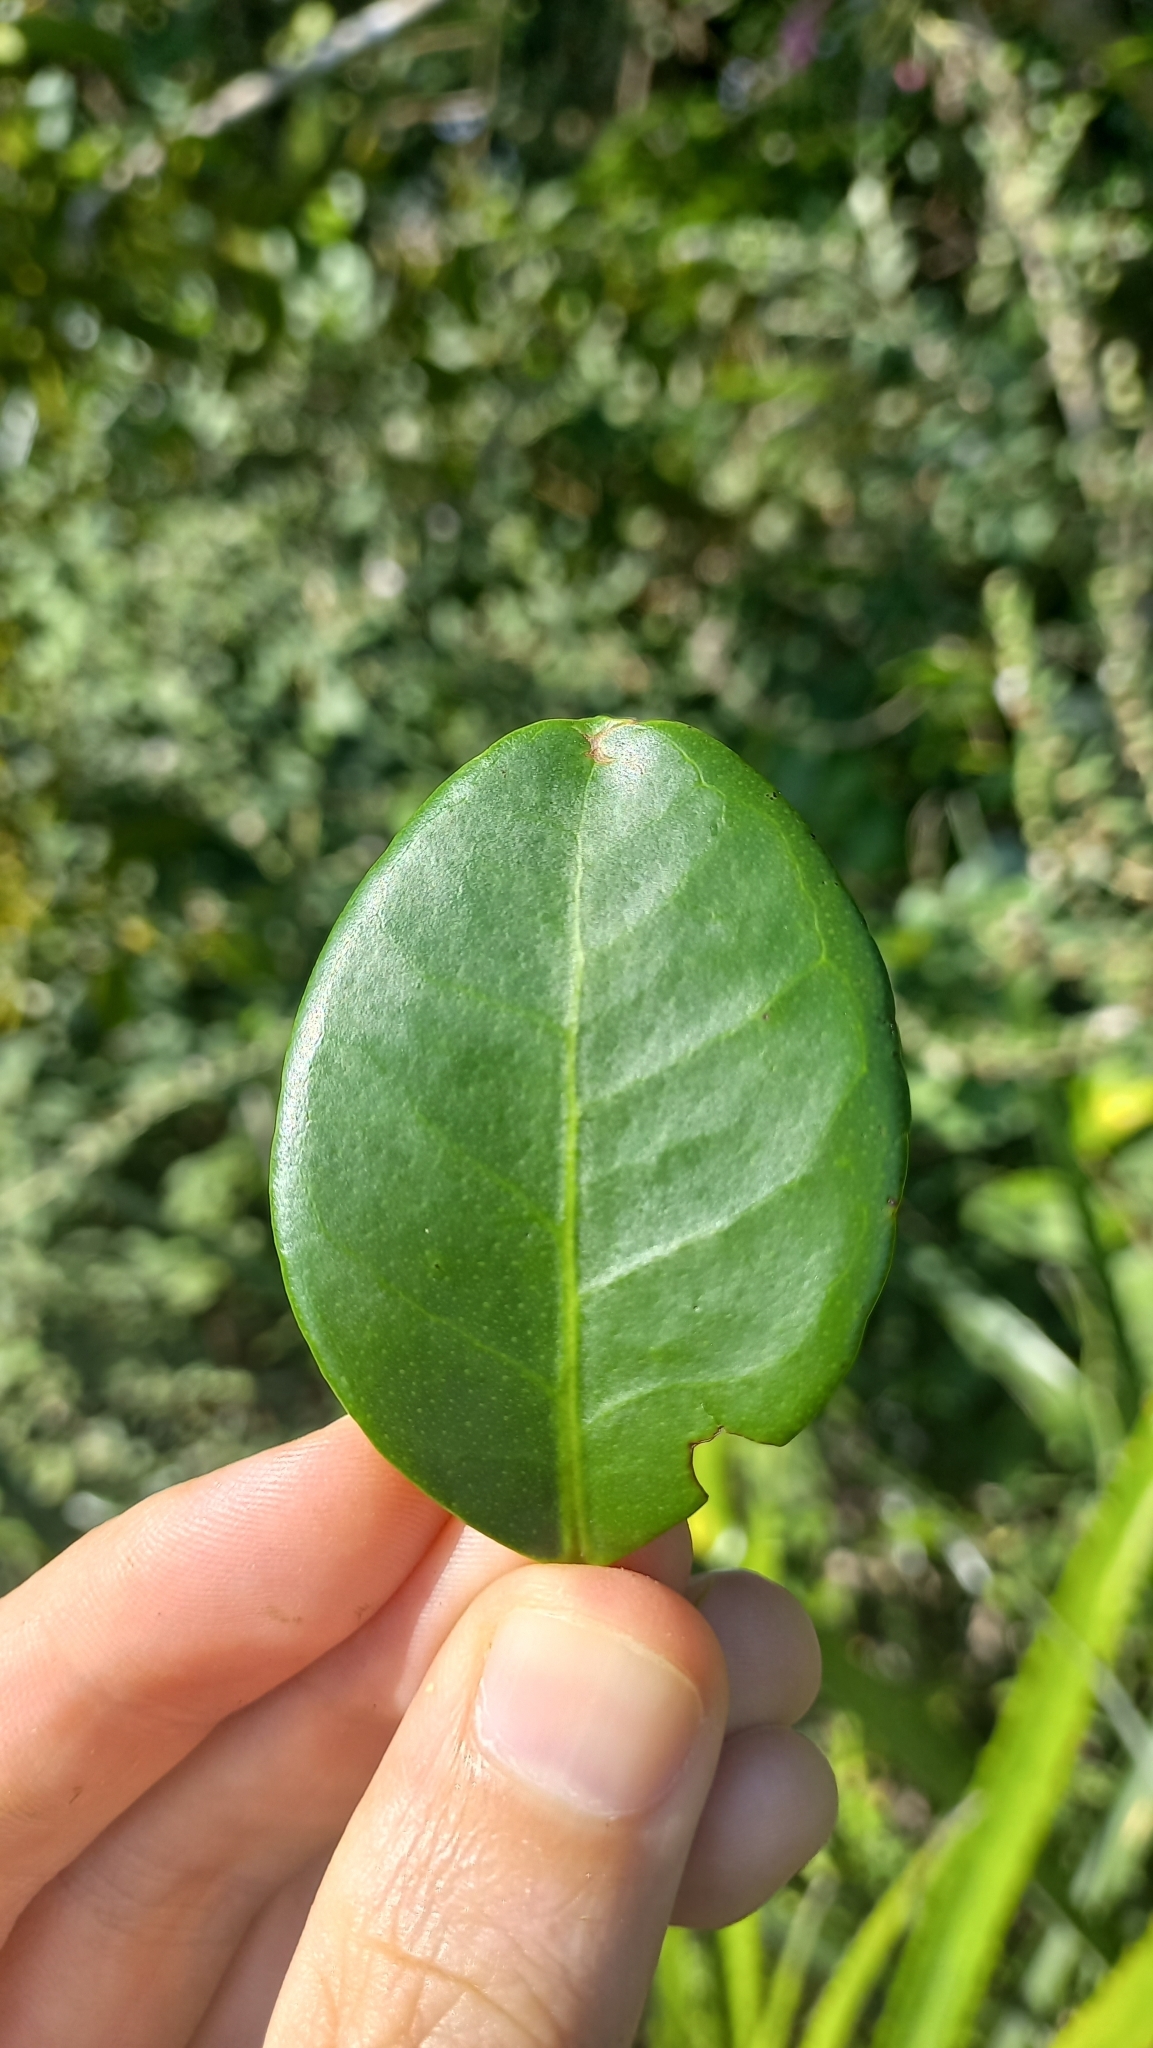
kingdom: Plantae
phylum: Tracheophyta
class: Magnoliopsida
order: Myrtales
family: Myrtaceae
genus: Eugenia
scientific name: Eugenia catharinae
